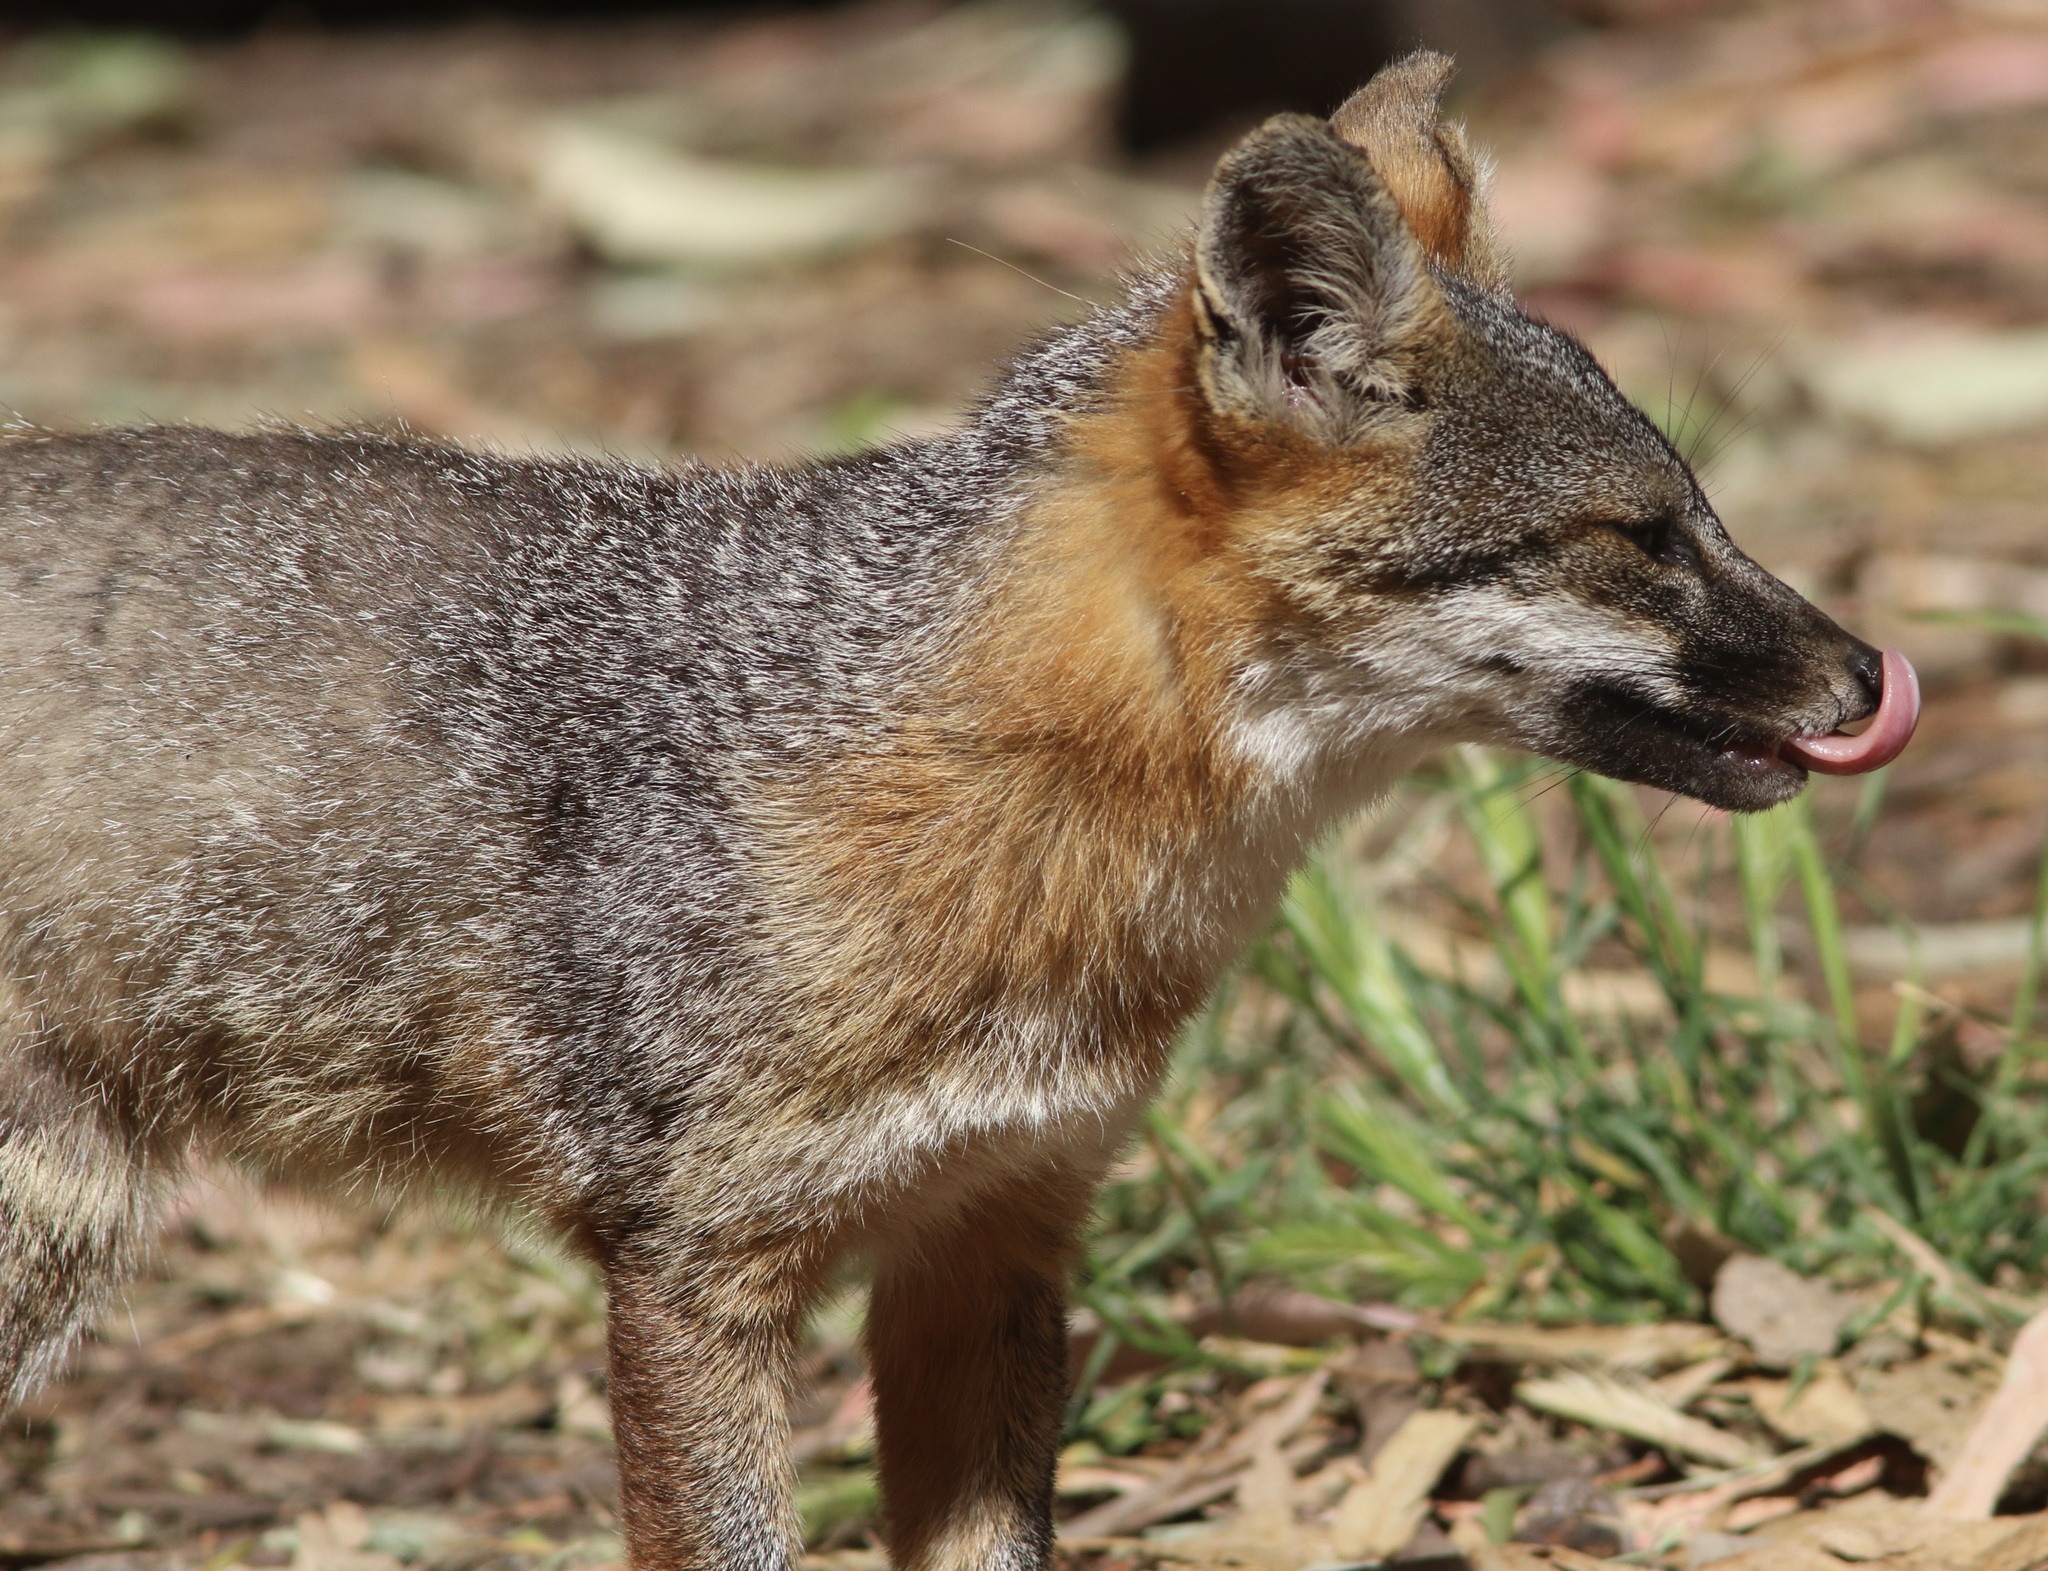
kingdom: Animalia
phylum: Chordata
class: Mammalia
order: Carnivora
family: Canidae
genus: Urocyon
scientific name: Urocyon littoralis
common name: Island gray fox
